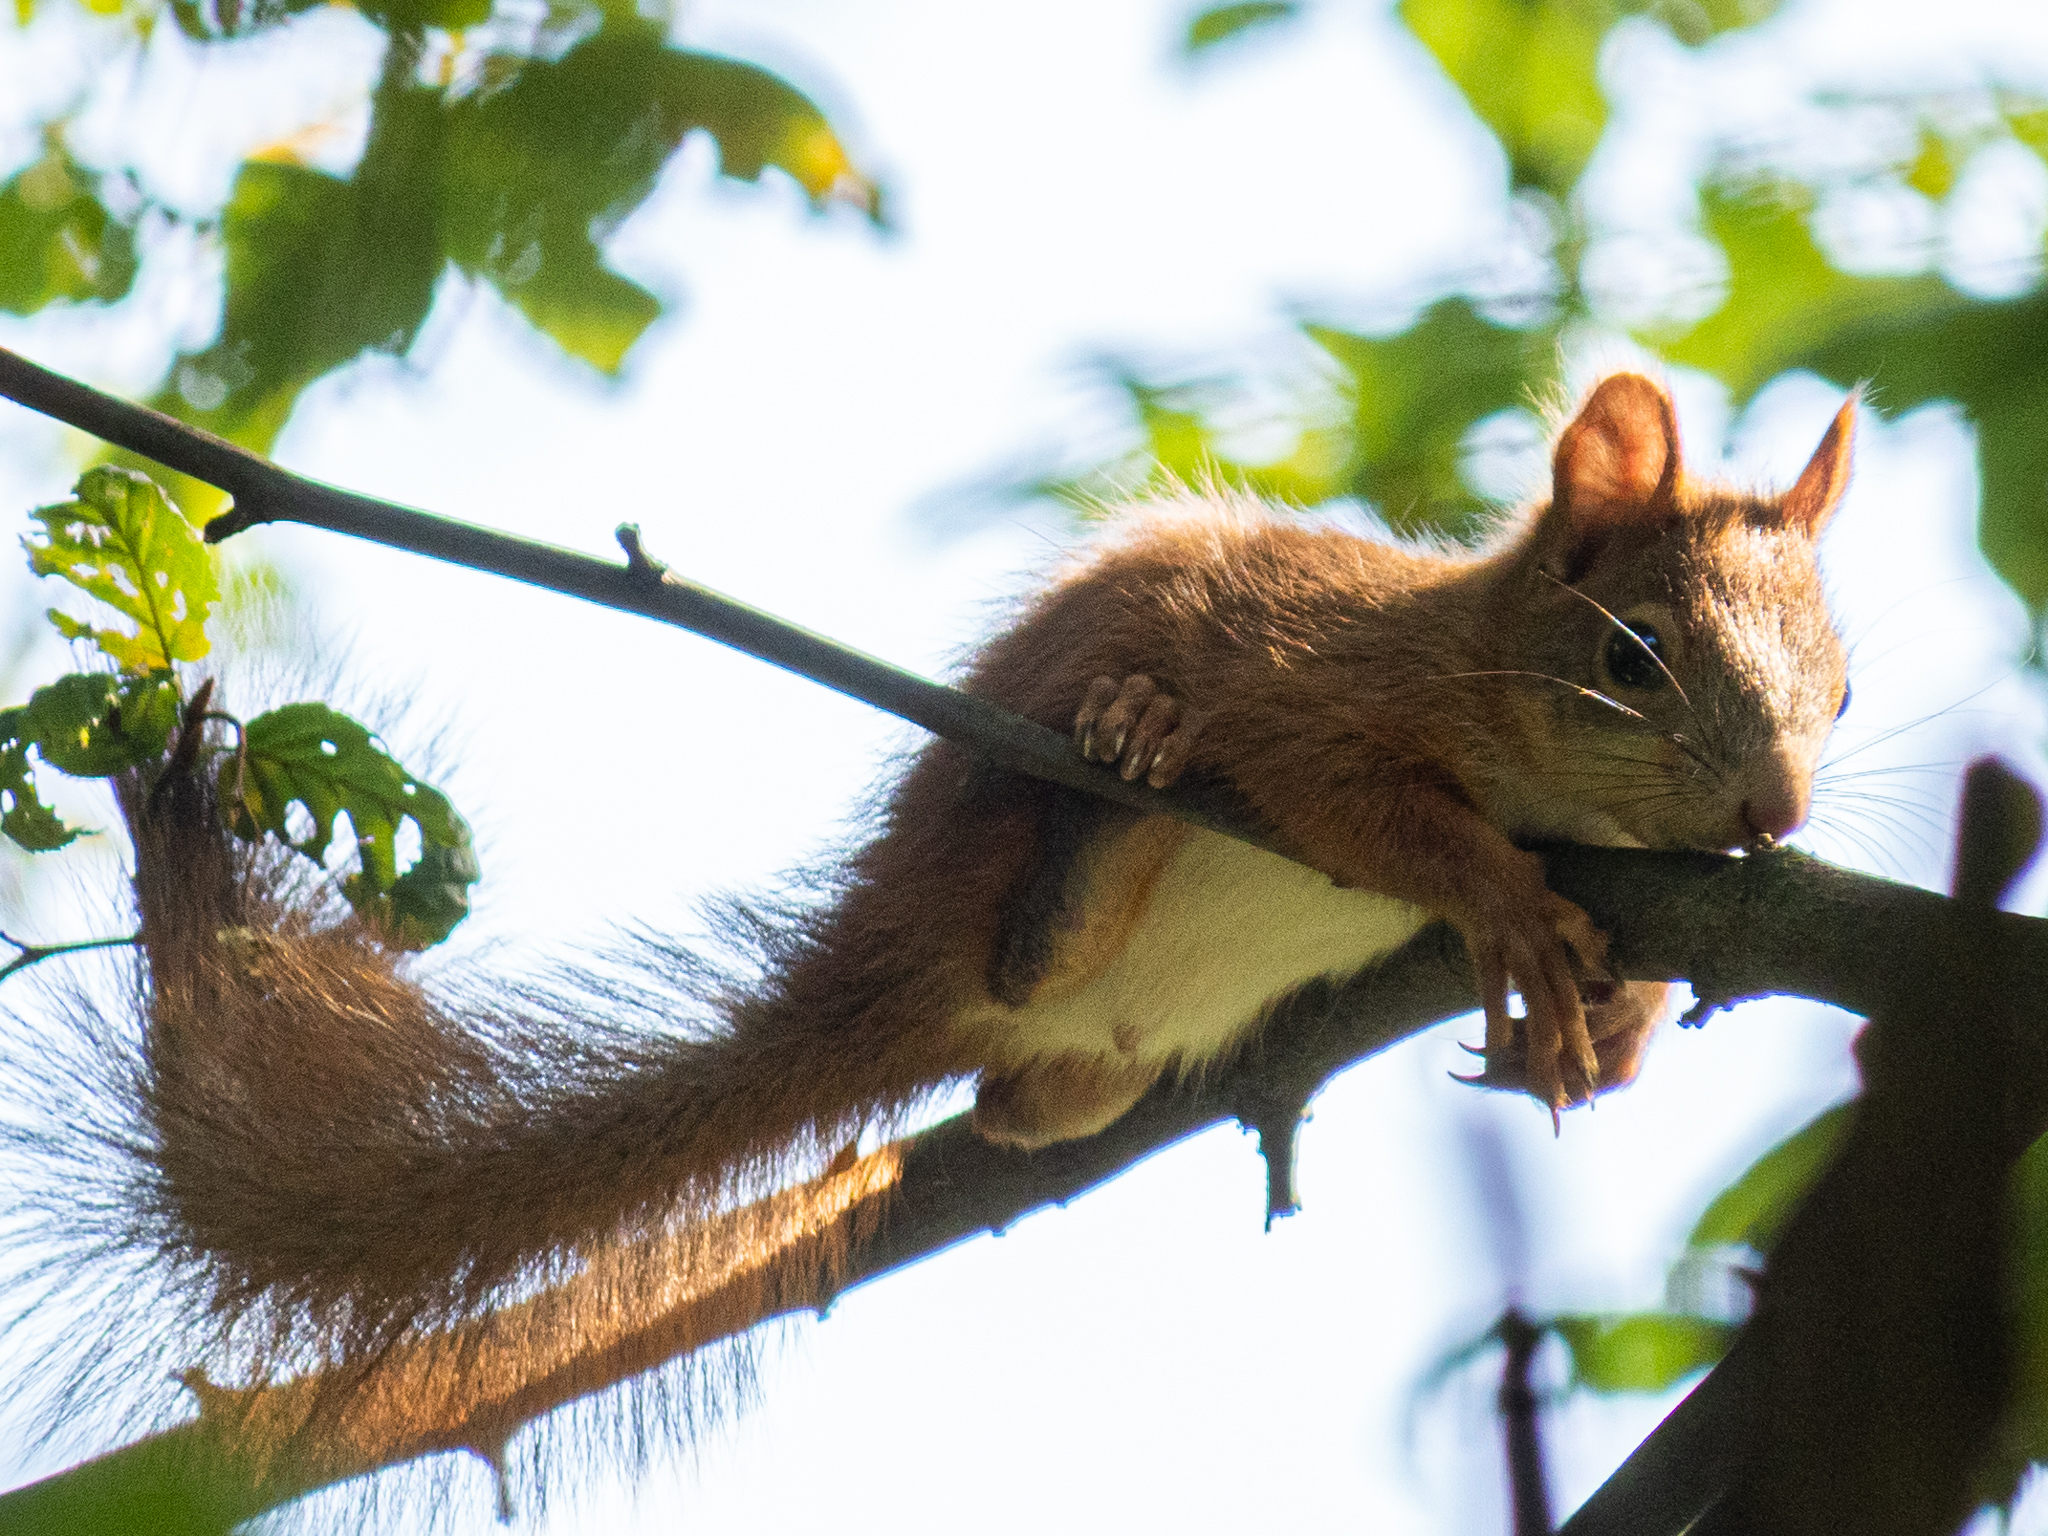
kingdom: Animalia
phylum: Chordata
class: Mammalia
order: Rodentia
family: Sciuridae
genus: Sciurus
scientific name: Sciurus vulgaris
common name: Eurasian red squirrel
